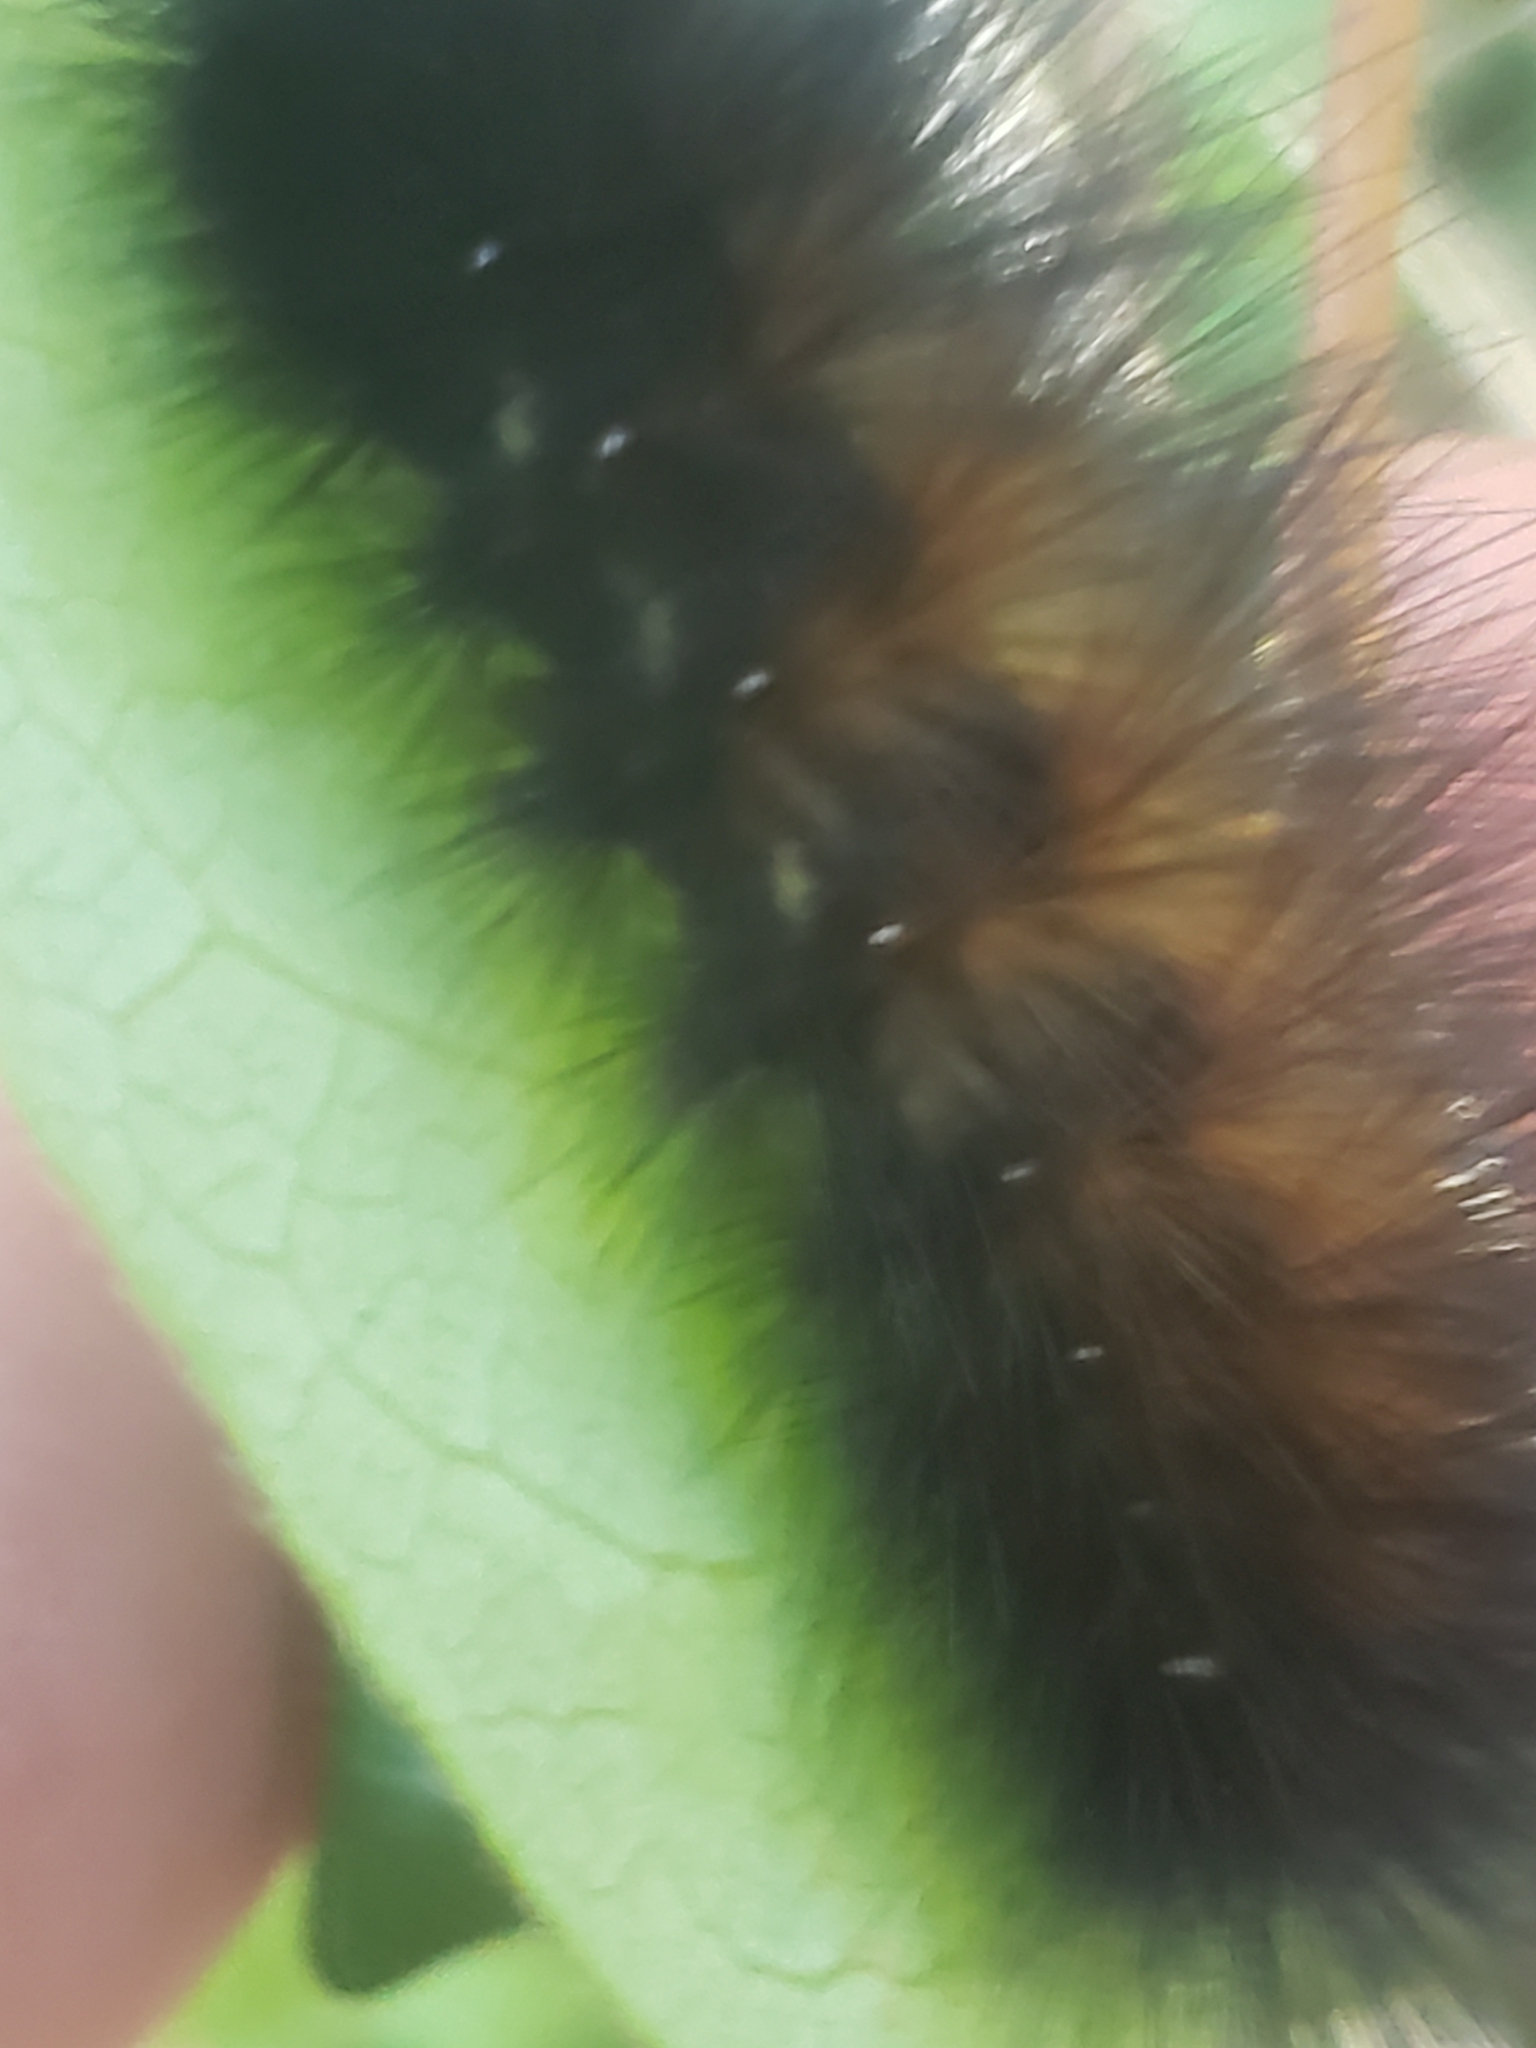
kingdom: Animalia
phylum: Arthropoda
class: Insecta
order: Lepidoptera
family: Erebidae
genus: Pyrrharctia
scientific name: Pyrrharctia isabella
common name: Isabella tiger moth
